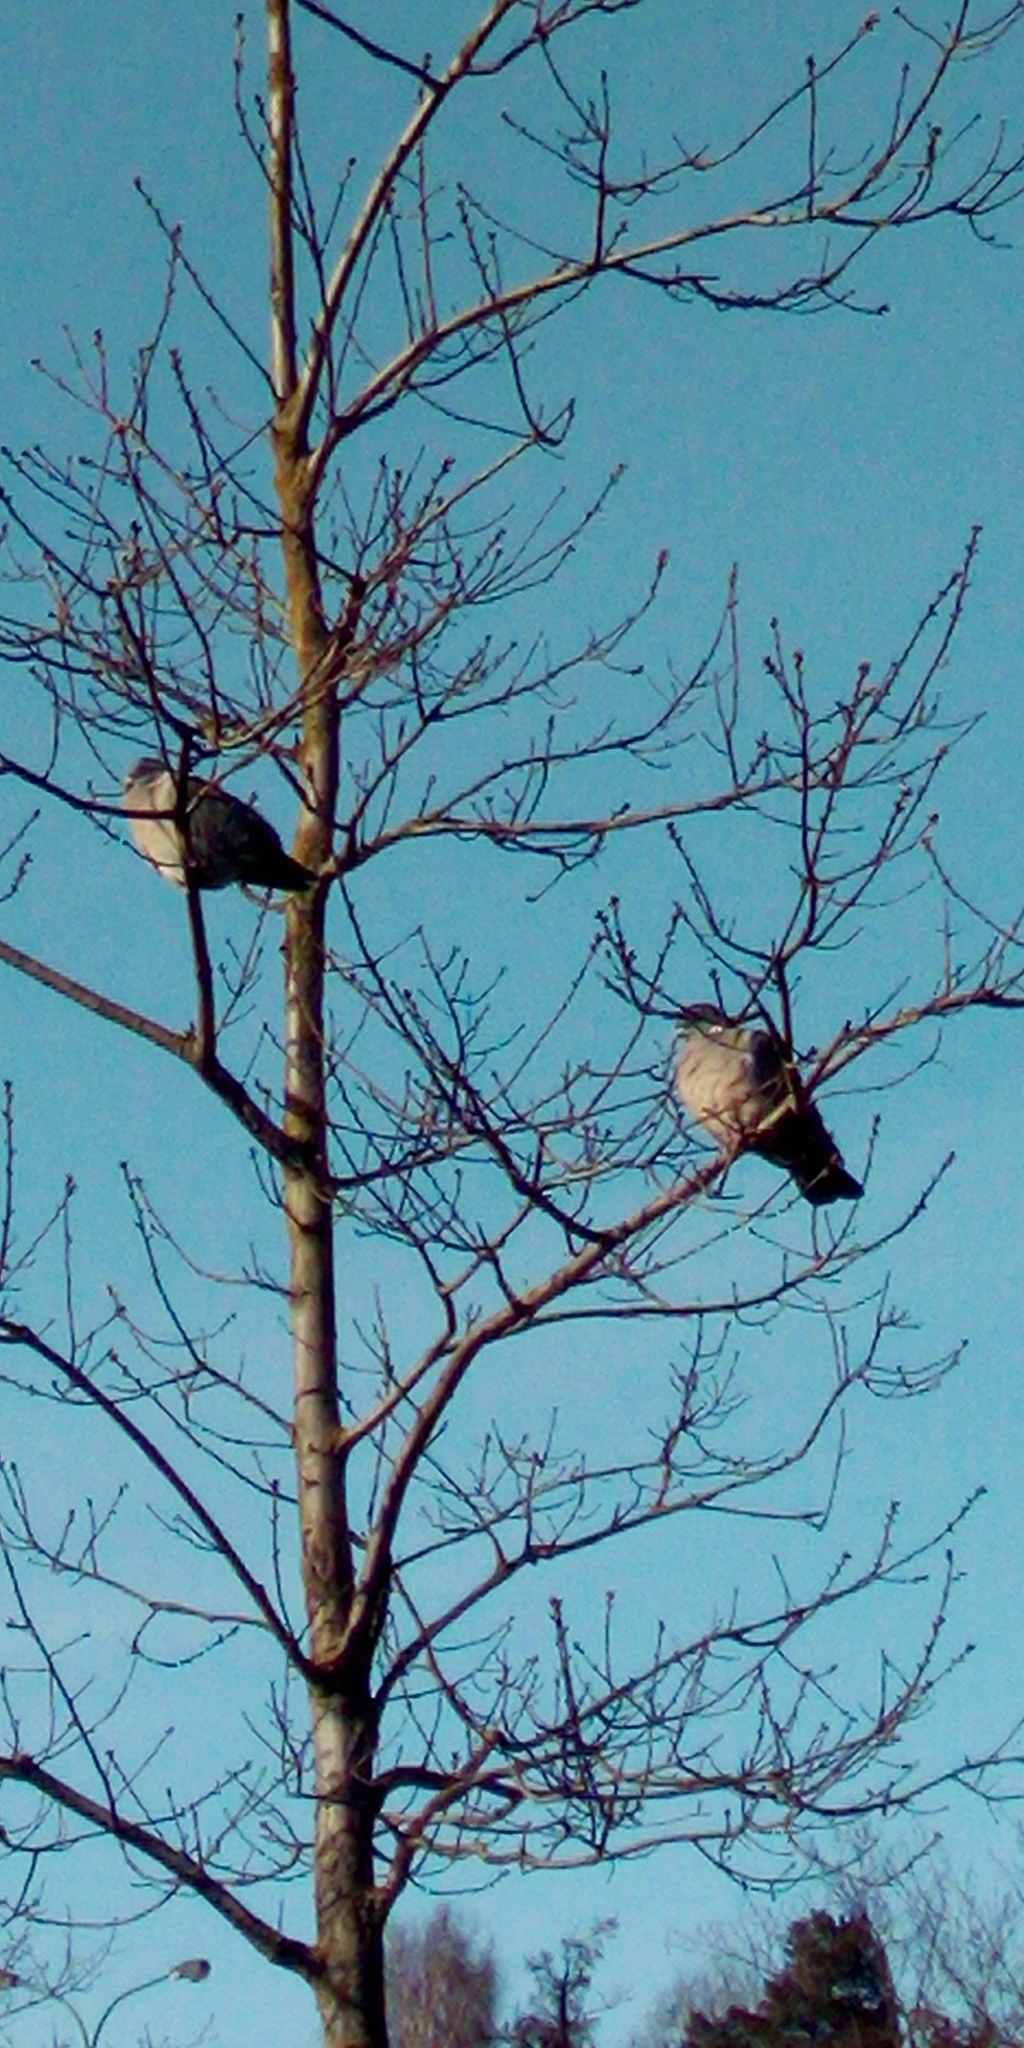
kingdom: Animalia
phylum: Chordata
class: Aves
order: Columbiformes
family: Columbidae
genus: Columba
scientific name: Columba palumbus
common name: Common wood pigeon
